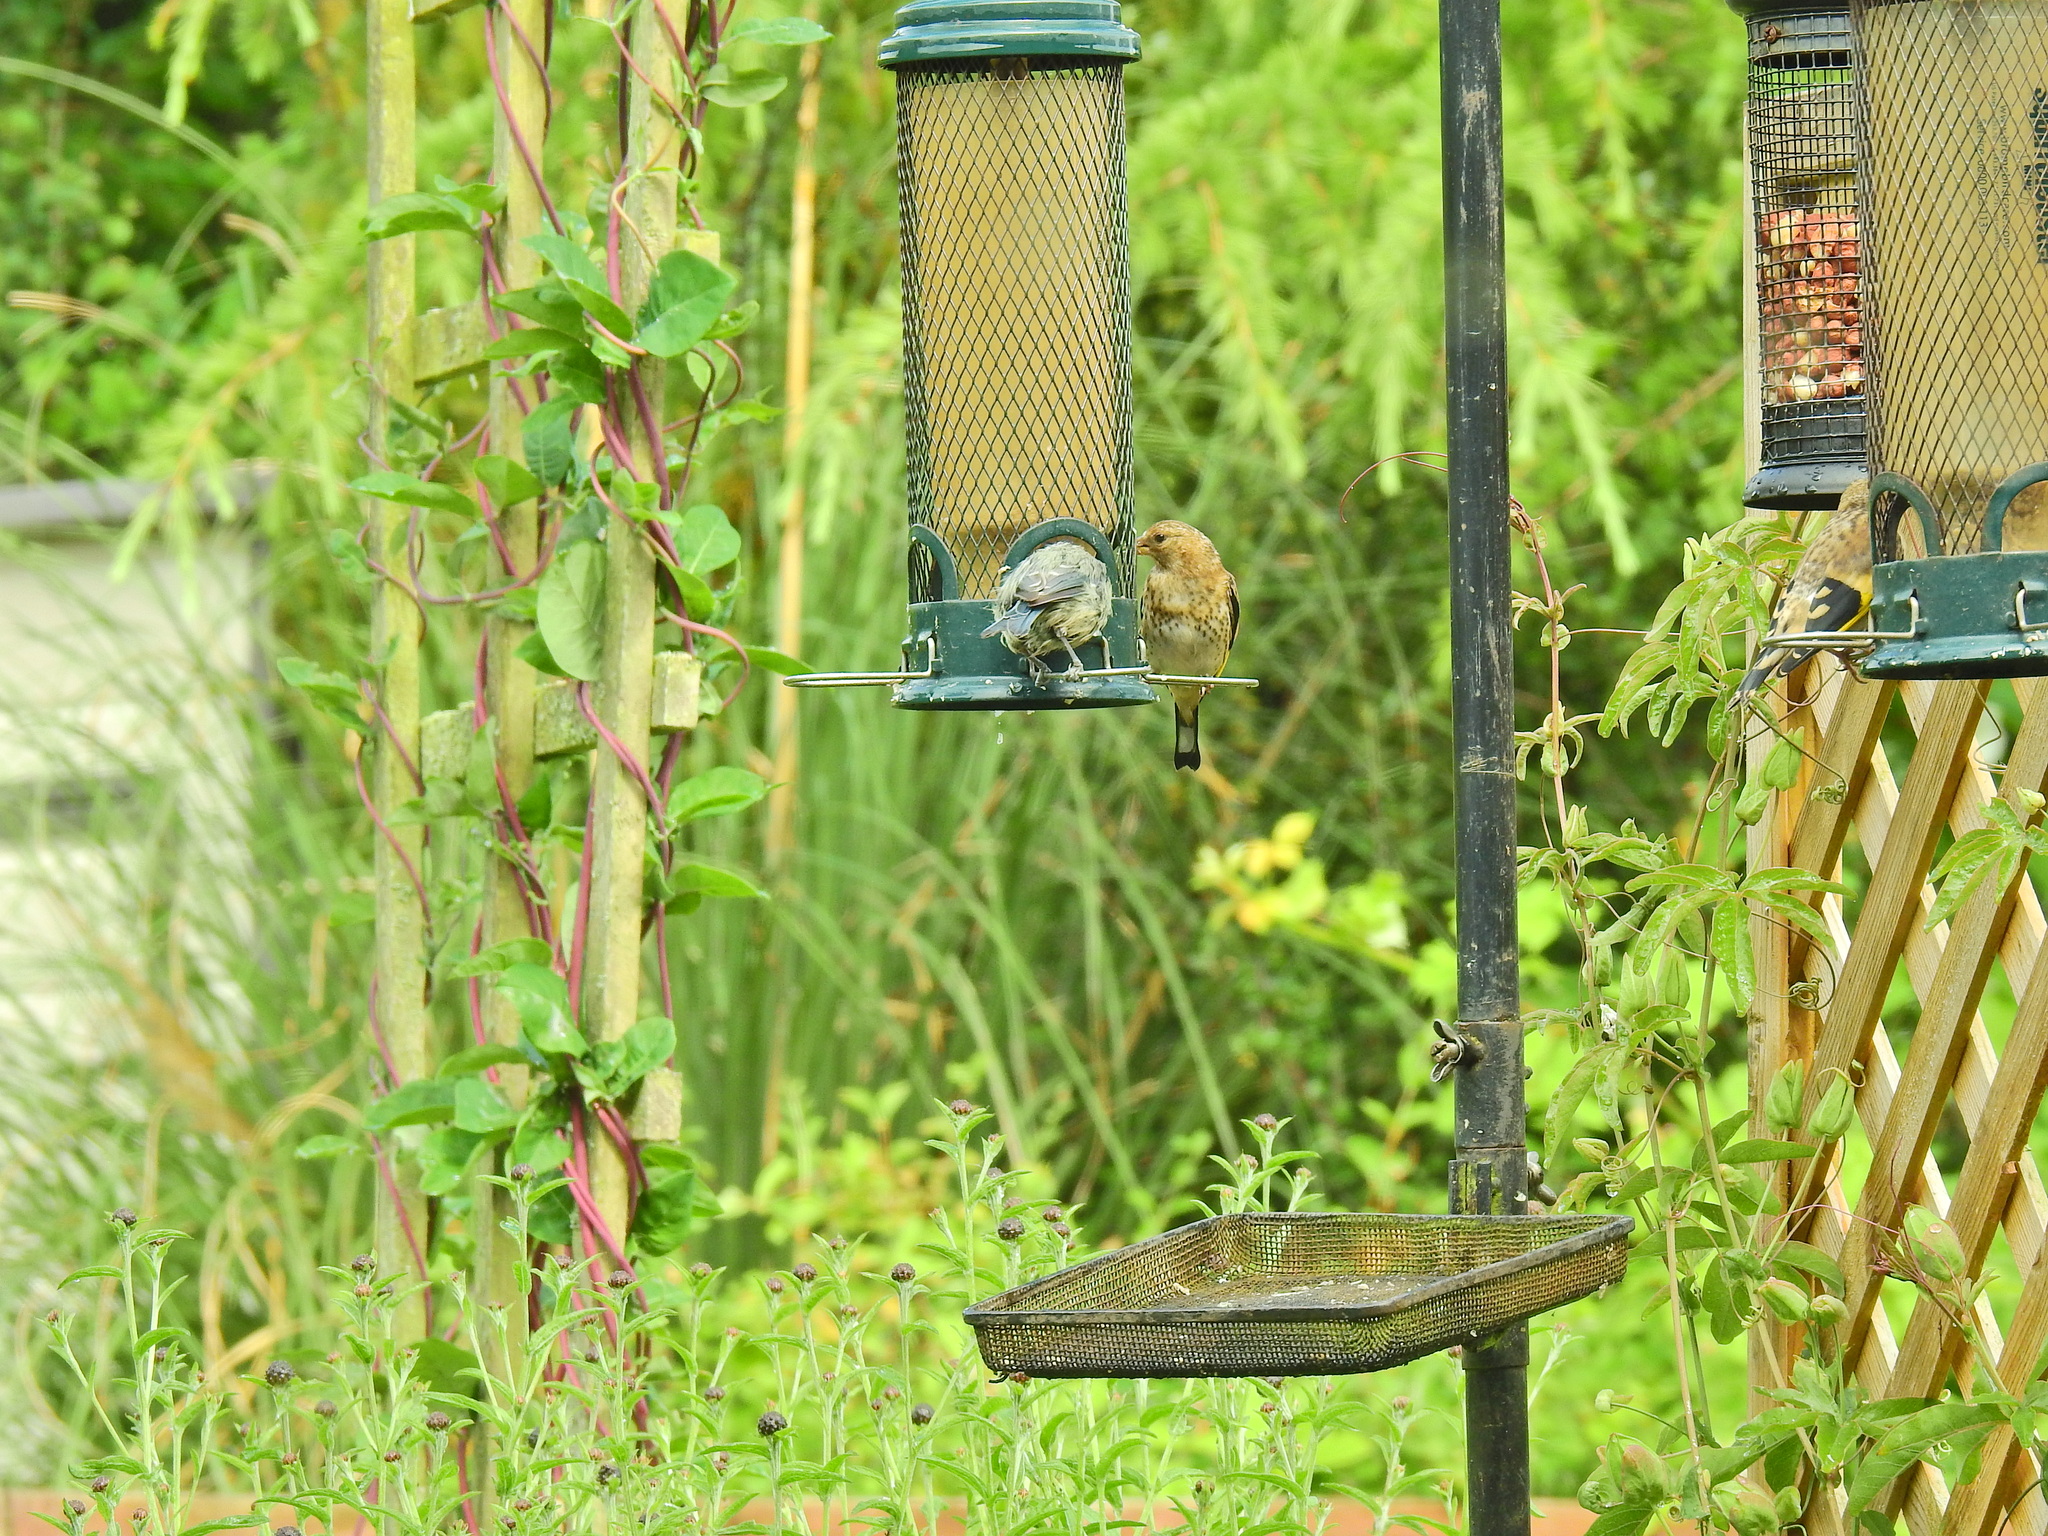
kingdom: Animalia
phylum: Chordata
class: Aves
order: Passeriformes
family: Paridae
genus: Cyanistes
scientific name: Cyanistes caeruleus
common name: Eurasian blue tit
